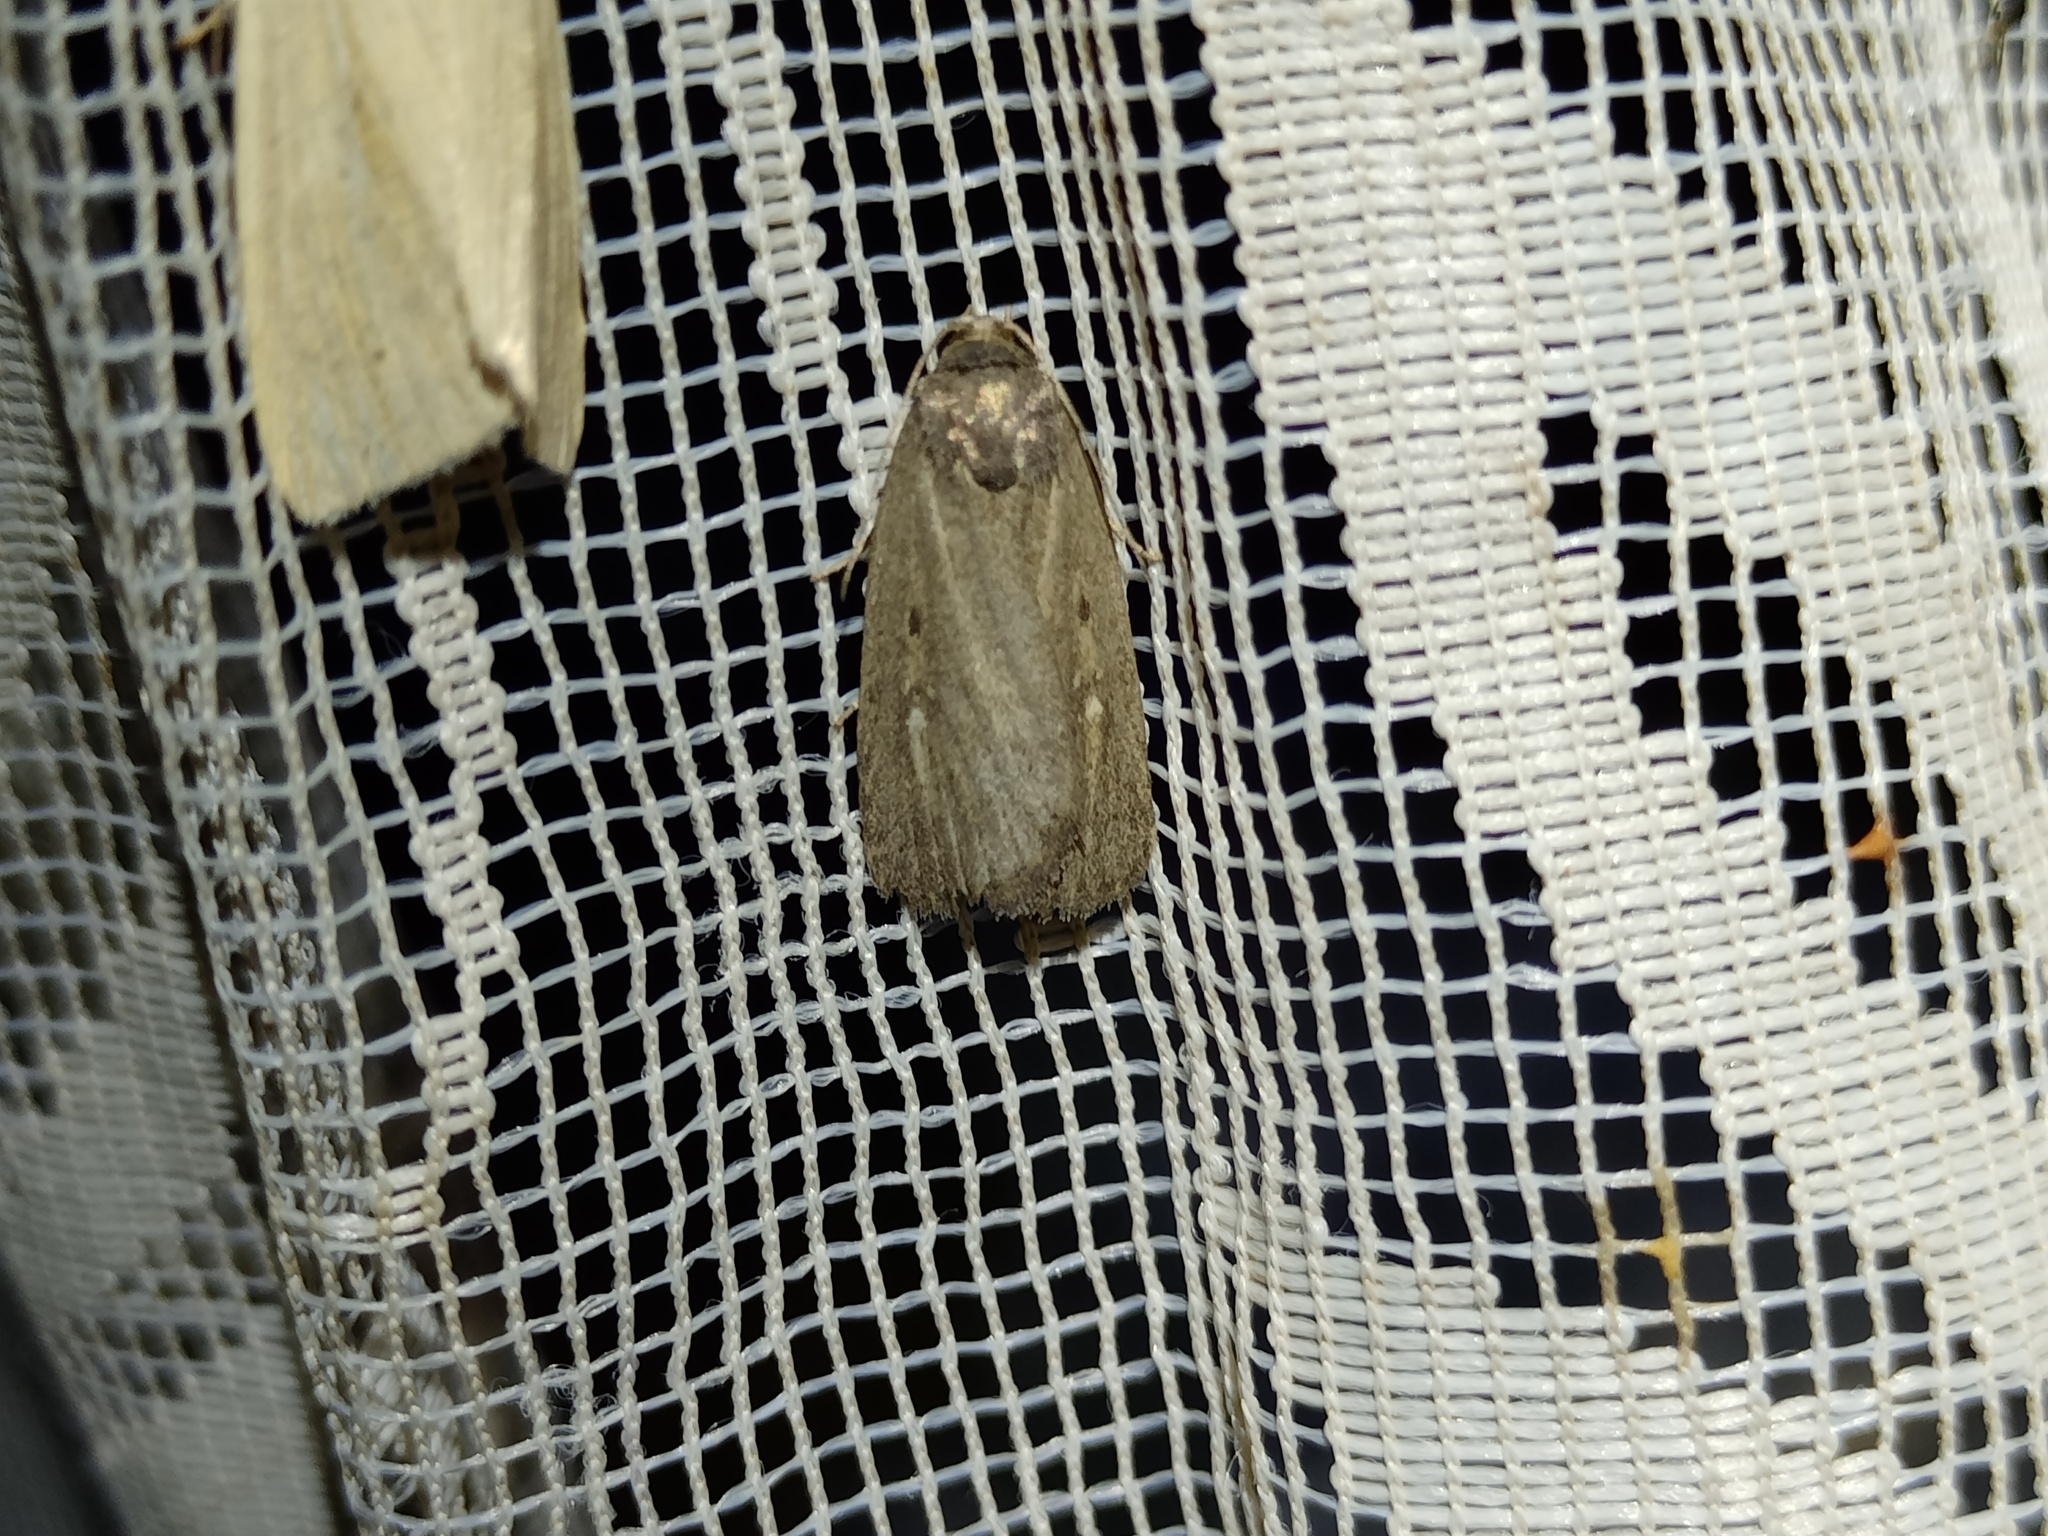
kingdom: Animalia
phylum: Arthropoda
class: Insecta
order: Lepidoptera
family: Noctuidae
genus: Athetis
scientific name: Athetis lepigone
